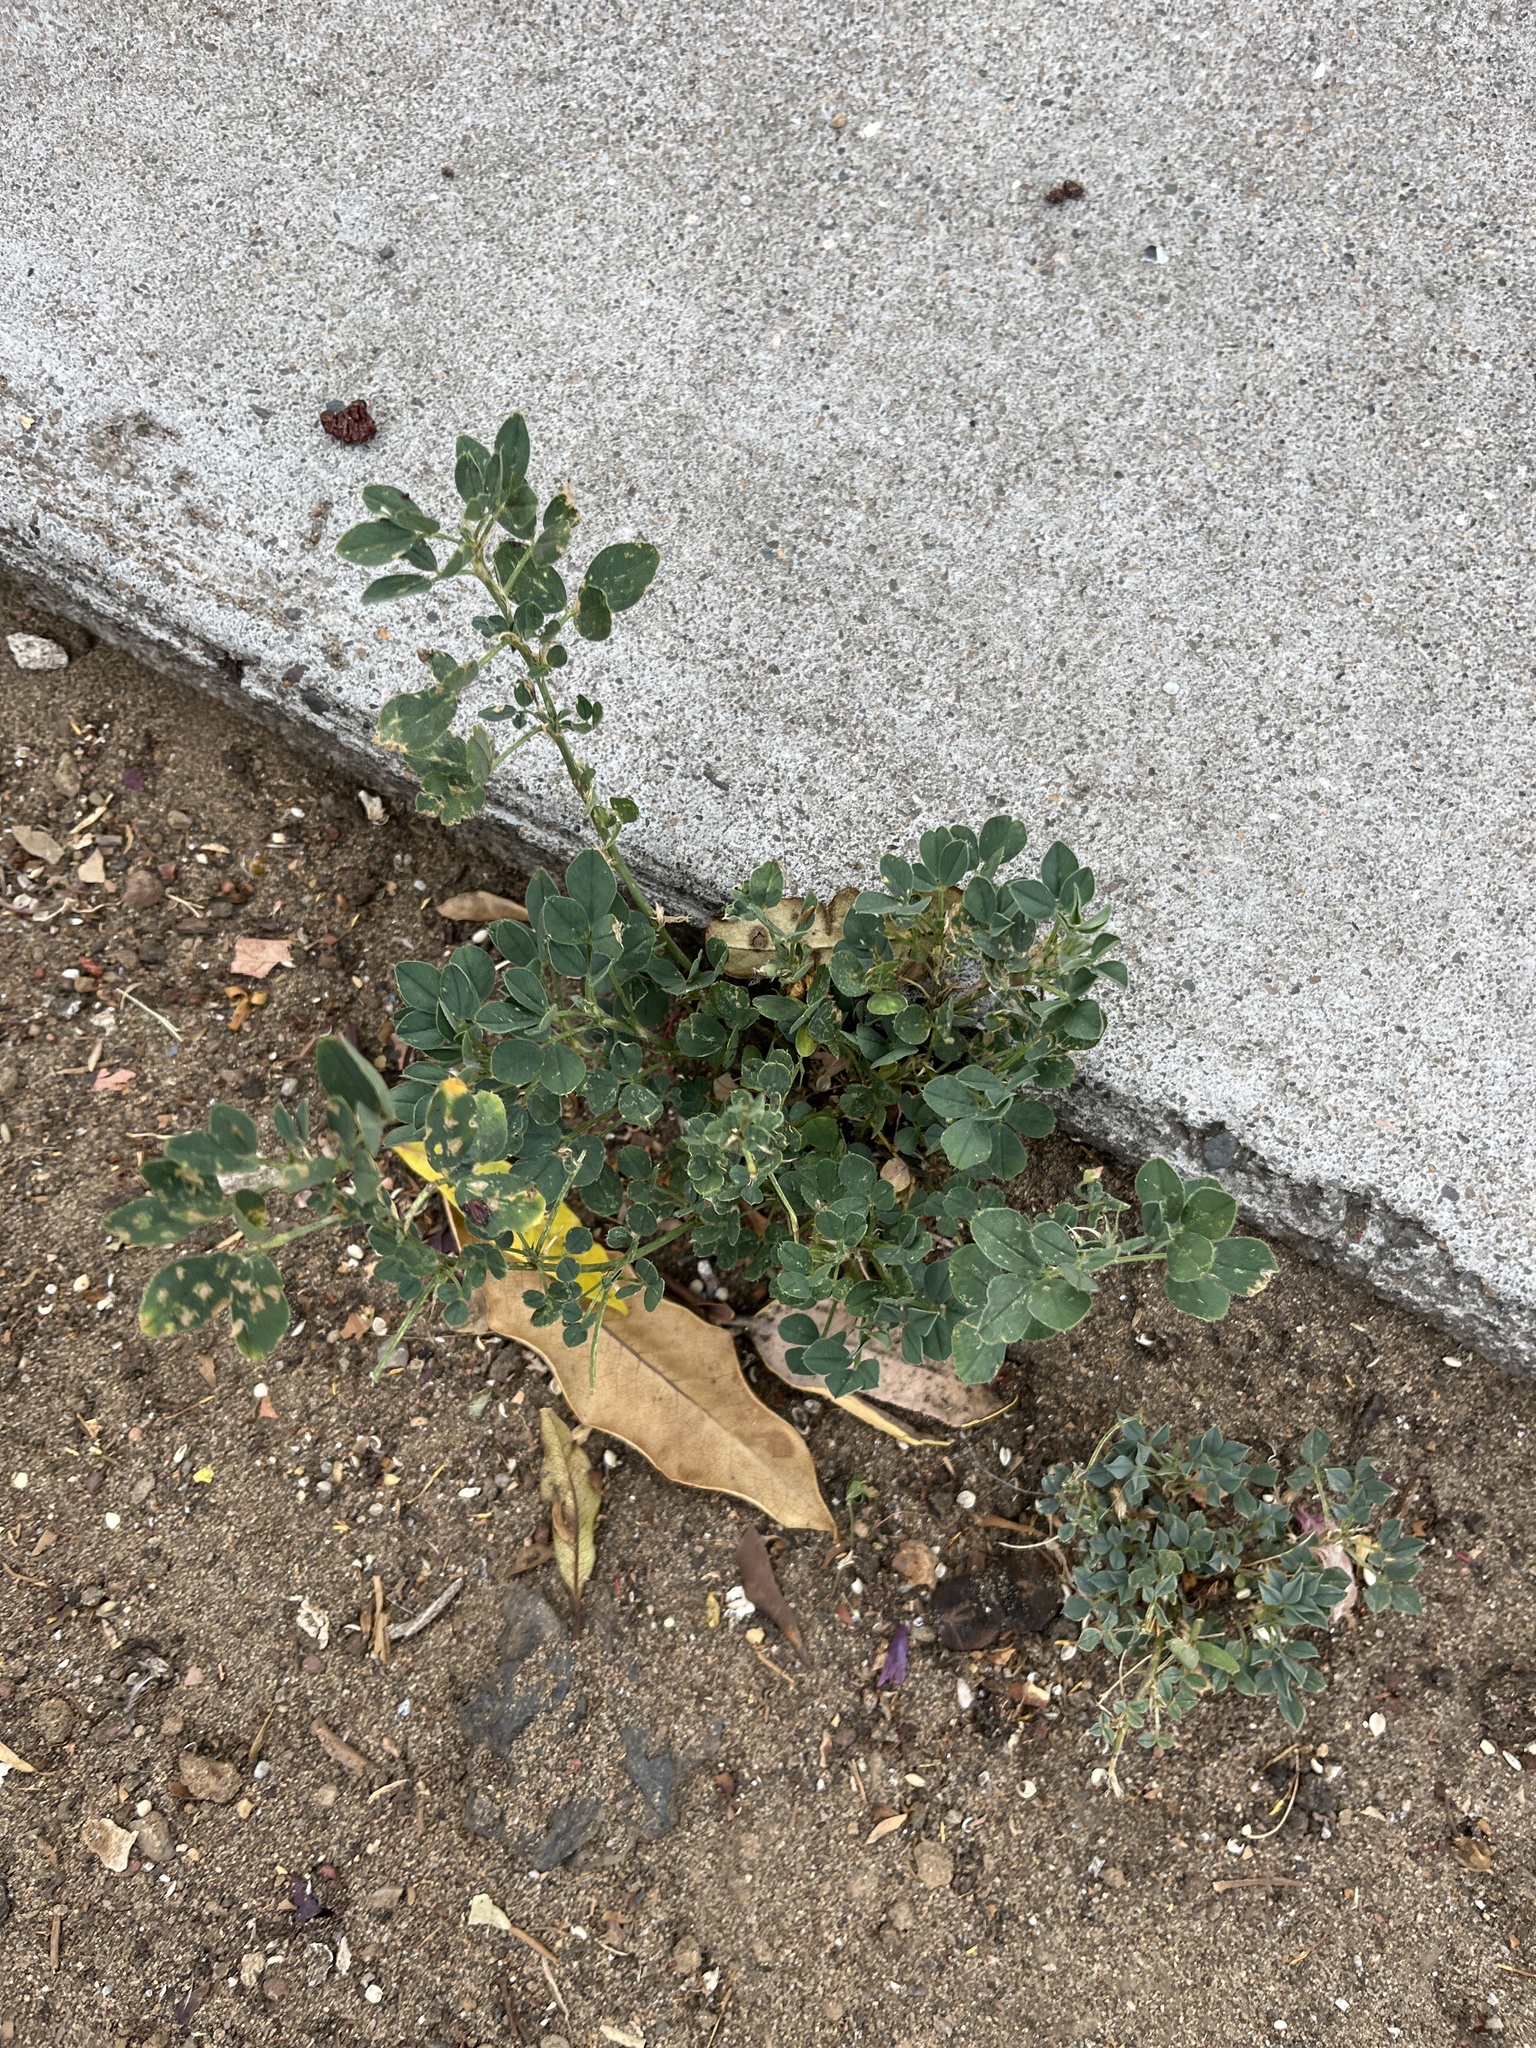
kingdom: Plantae
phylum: Tracheophyta
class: Magnoliopsida
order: Fabales
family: Fabaceae
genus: Medicago
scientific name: Medicago lupulina
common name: Black medick
